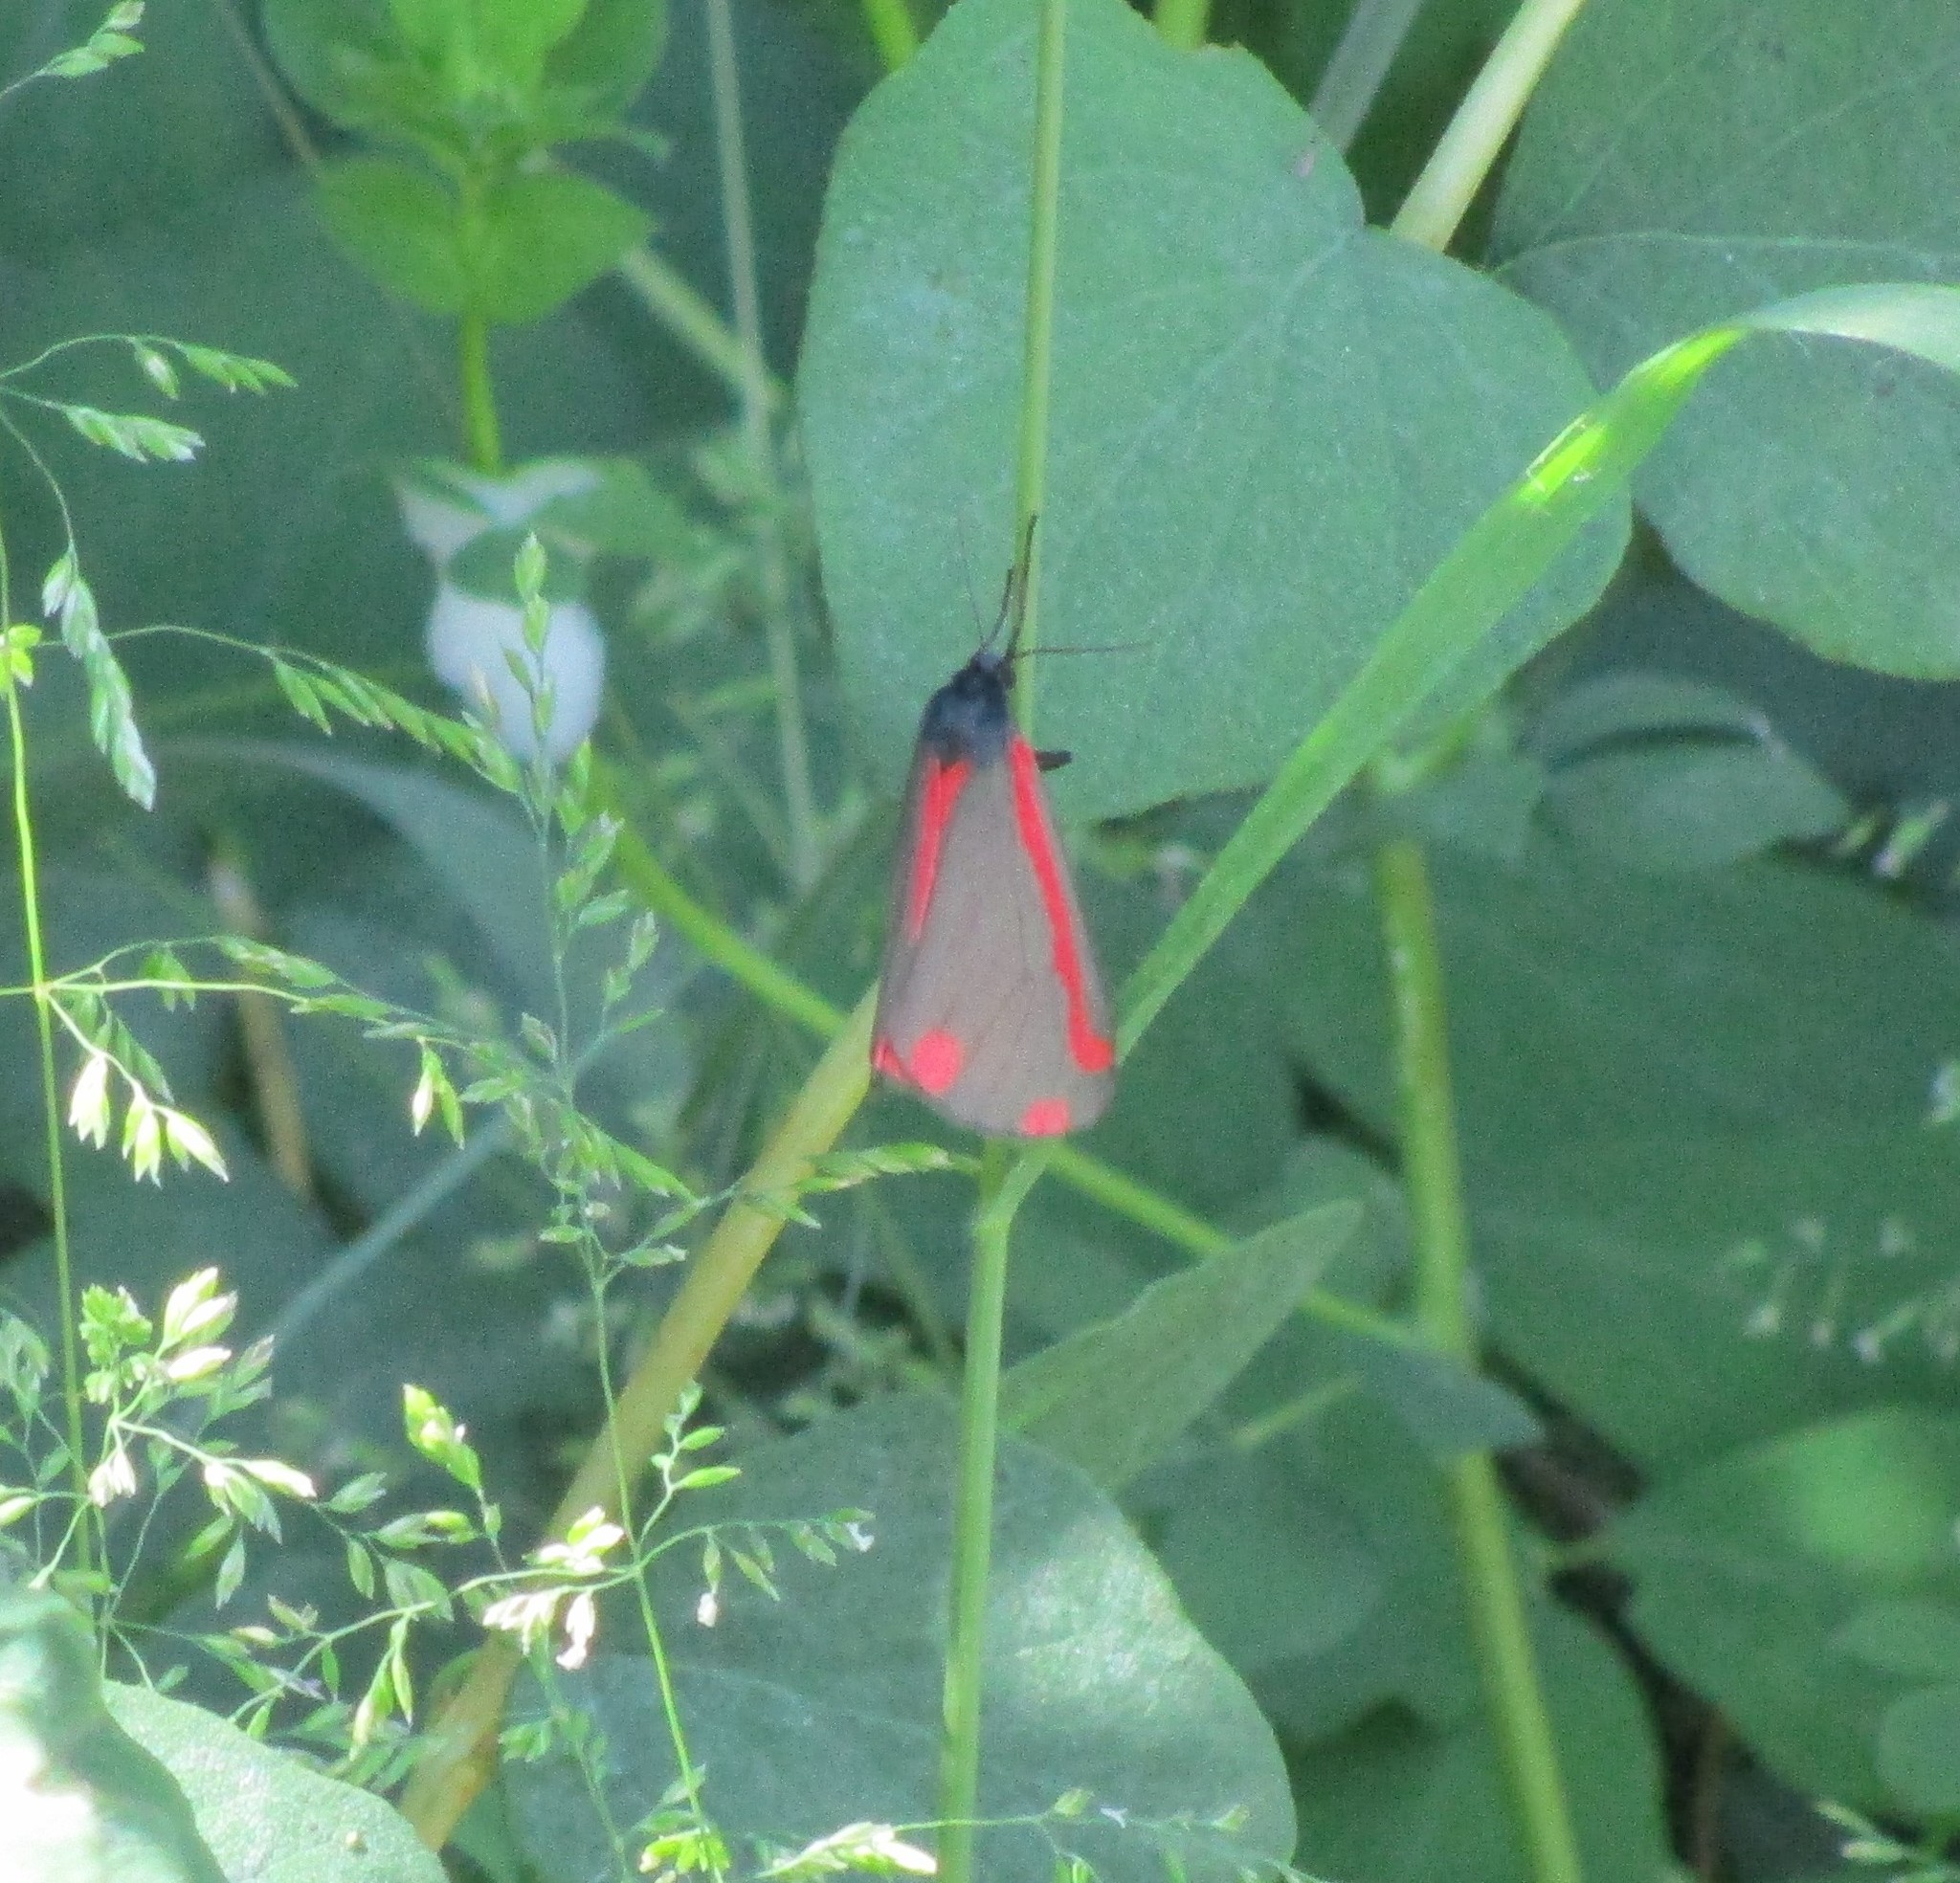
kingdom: Animalia
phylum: Arthropoda
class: Insecta
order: Lepidoptera
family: Erebidae
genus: Tyria
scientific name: Tyria jacobaeae
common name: Cinnabar
